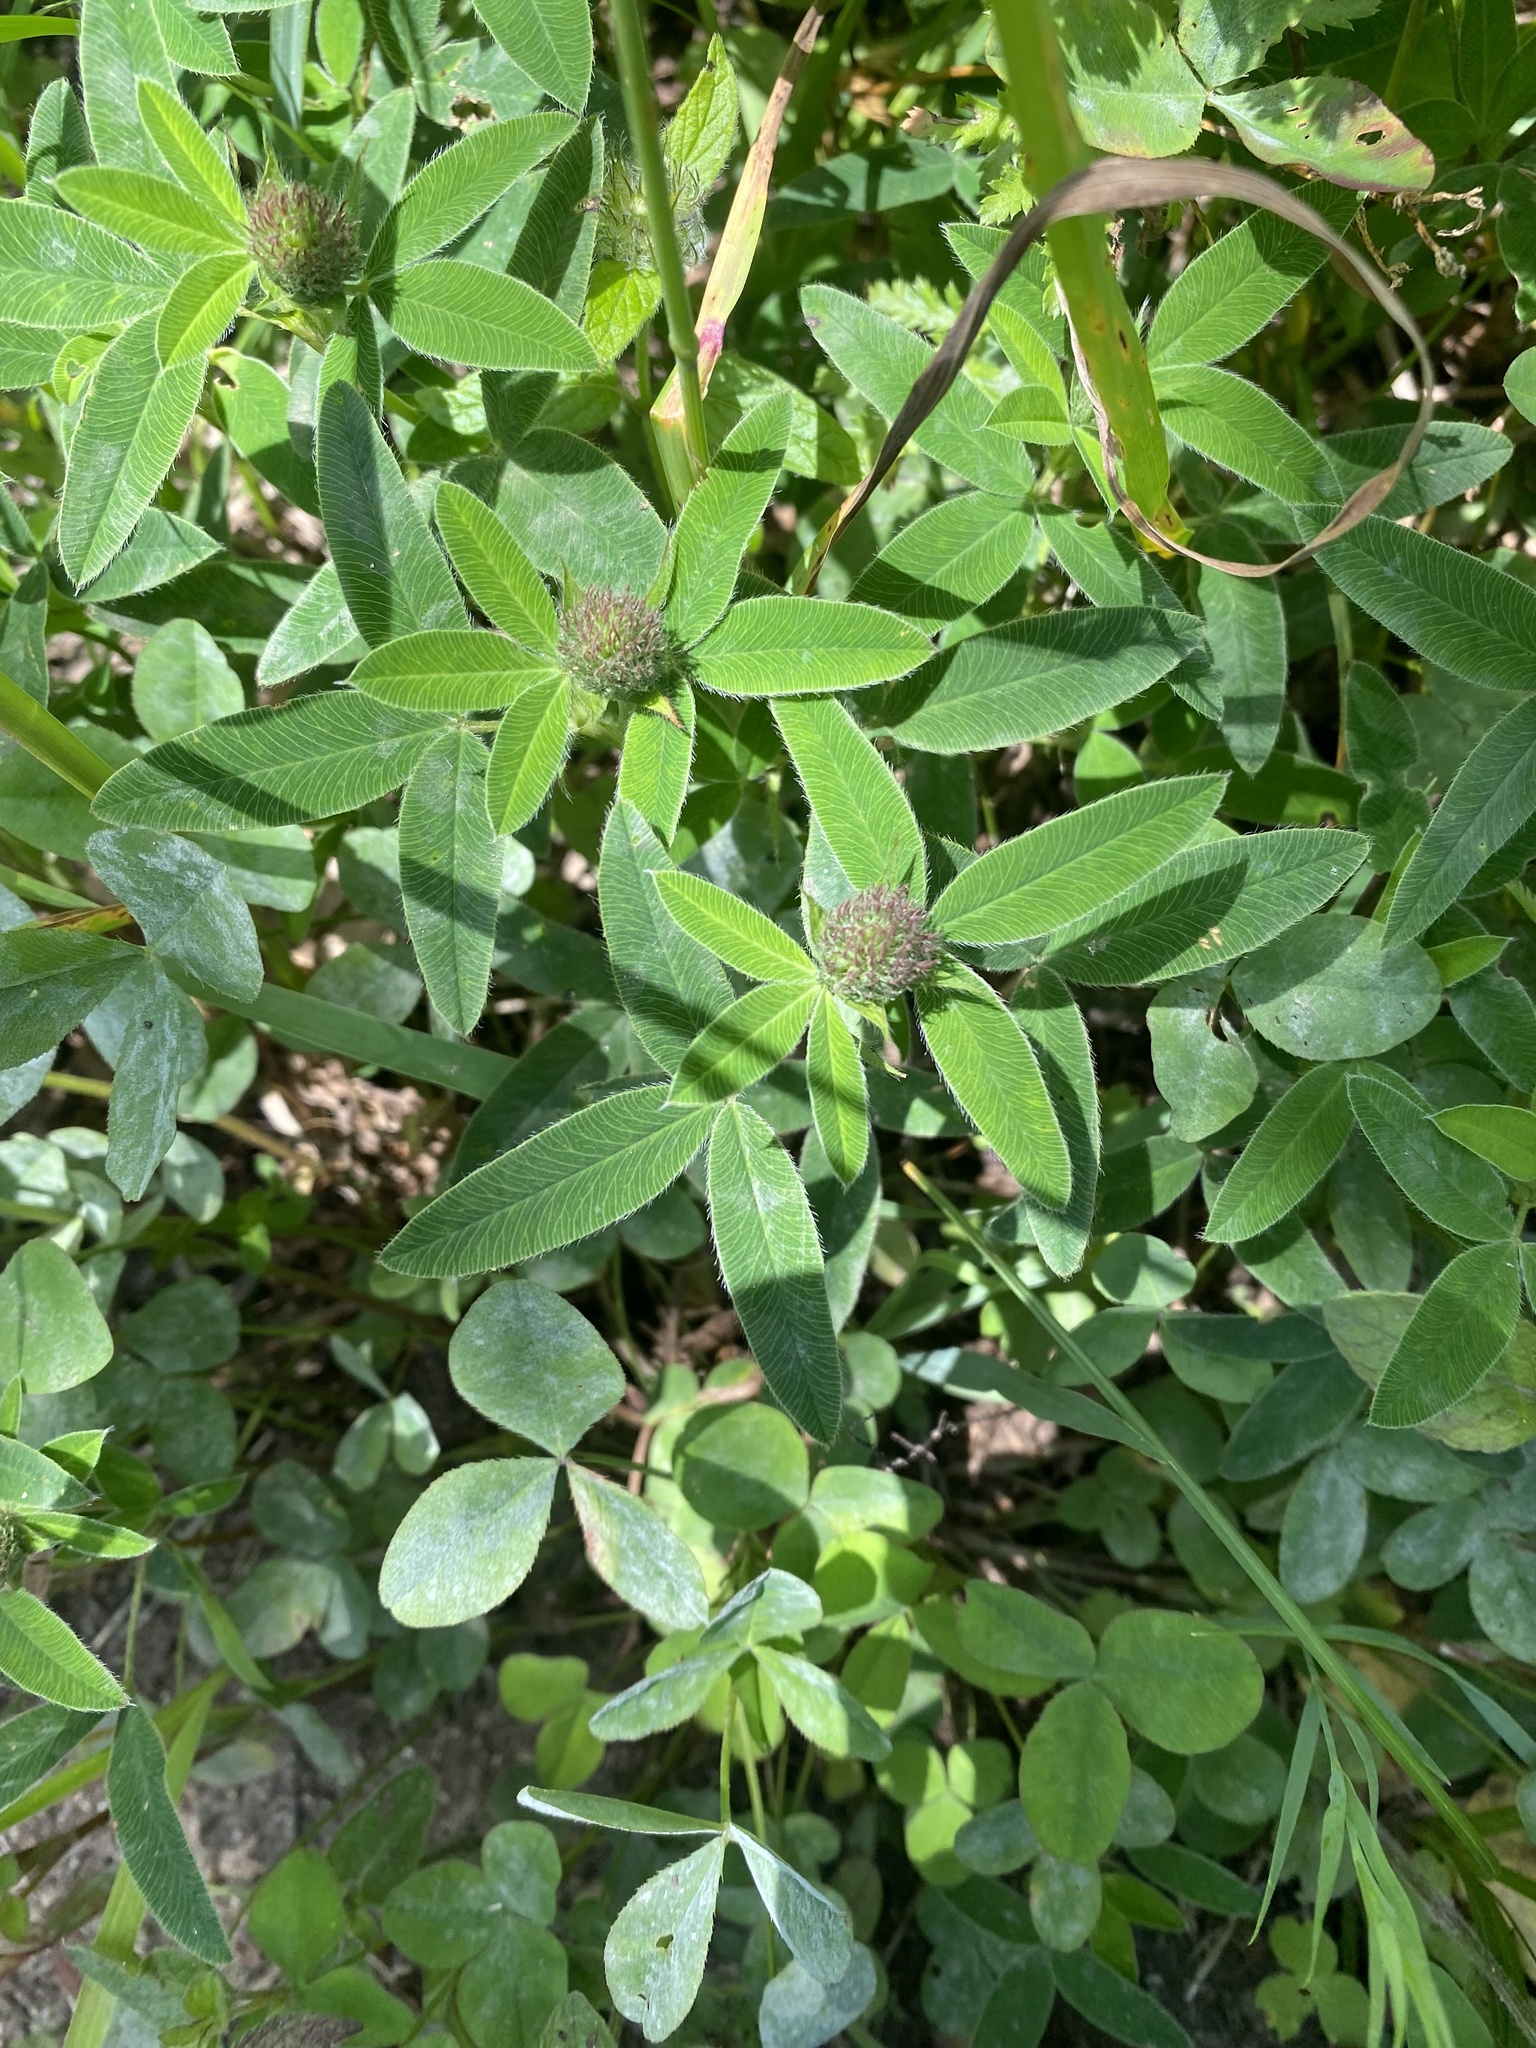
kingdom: Plantae
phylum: Tracheophyta
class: Magnoliopsida
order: Fabales
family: Fabaceae
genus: Trifolium
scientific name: Trifolium medium
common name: Zigzag clover
